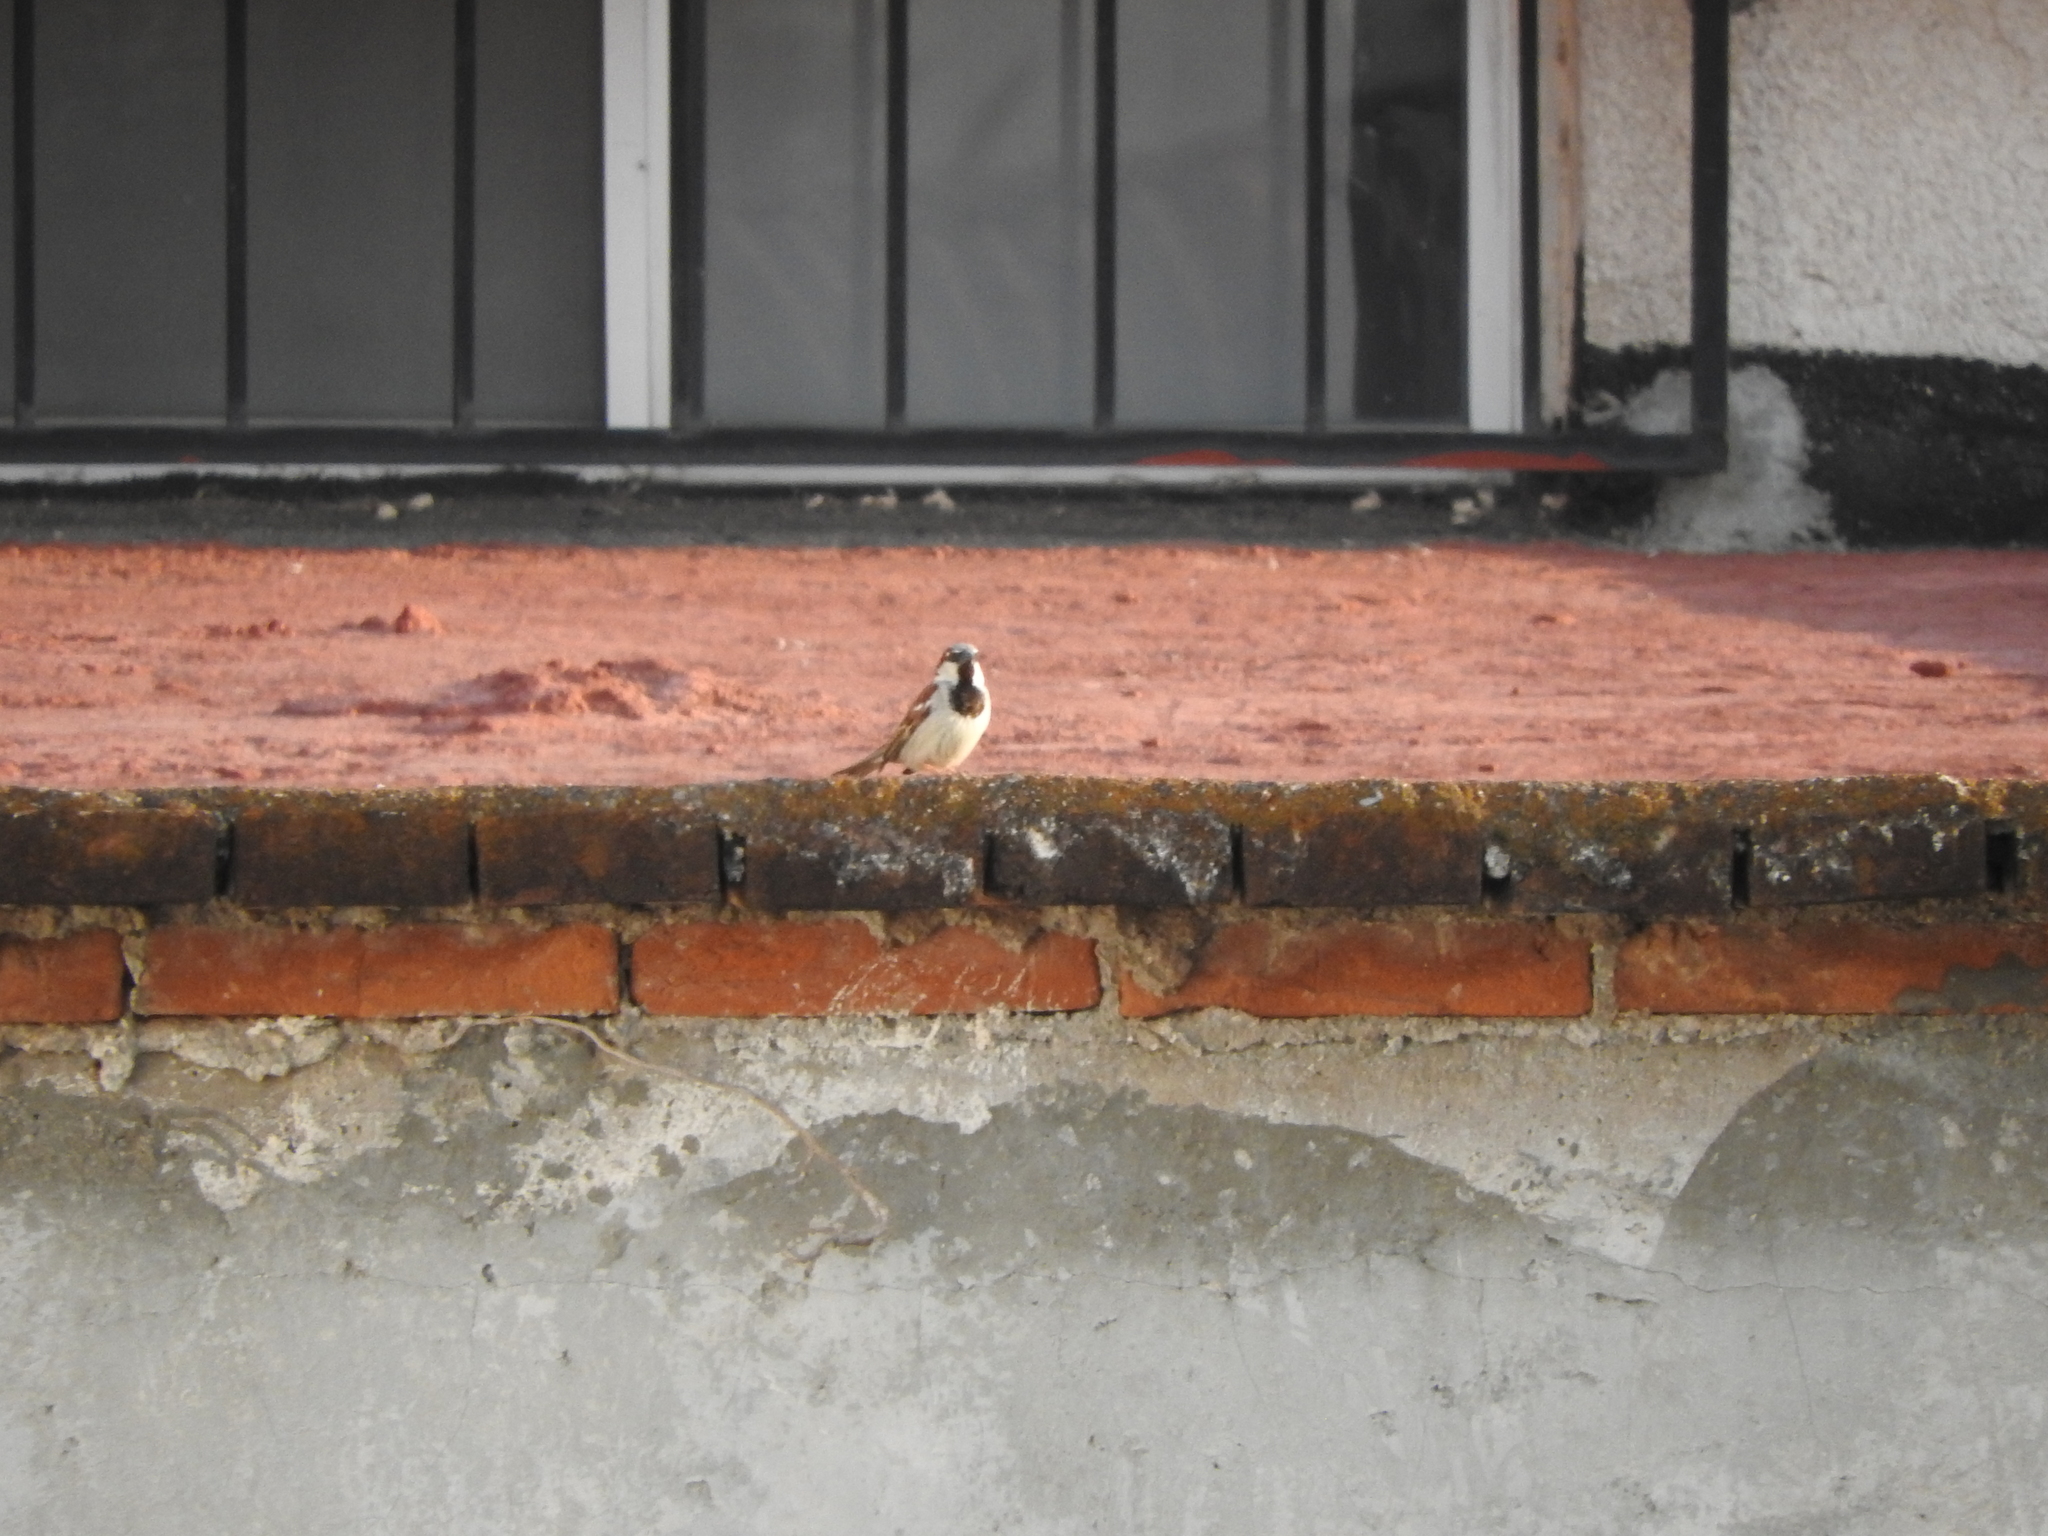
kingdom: Animalia
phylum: Chordata
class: Aves
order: Passeriformes
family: Passeridae
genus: Passer
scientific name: Passer domesticus
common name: House sparrow
